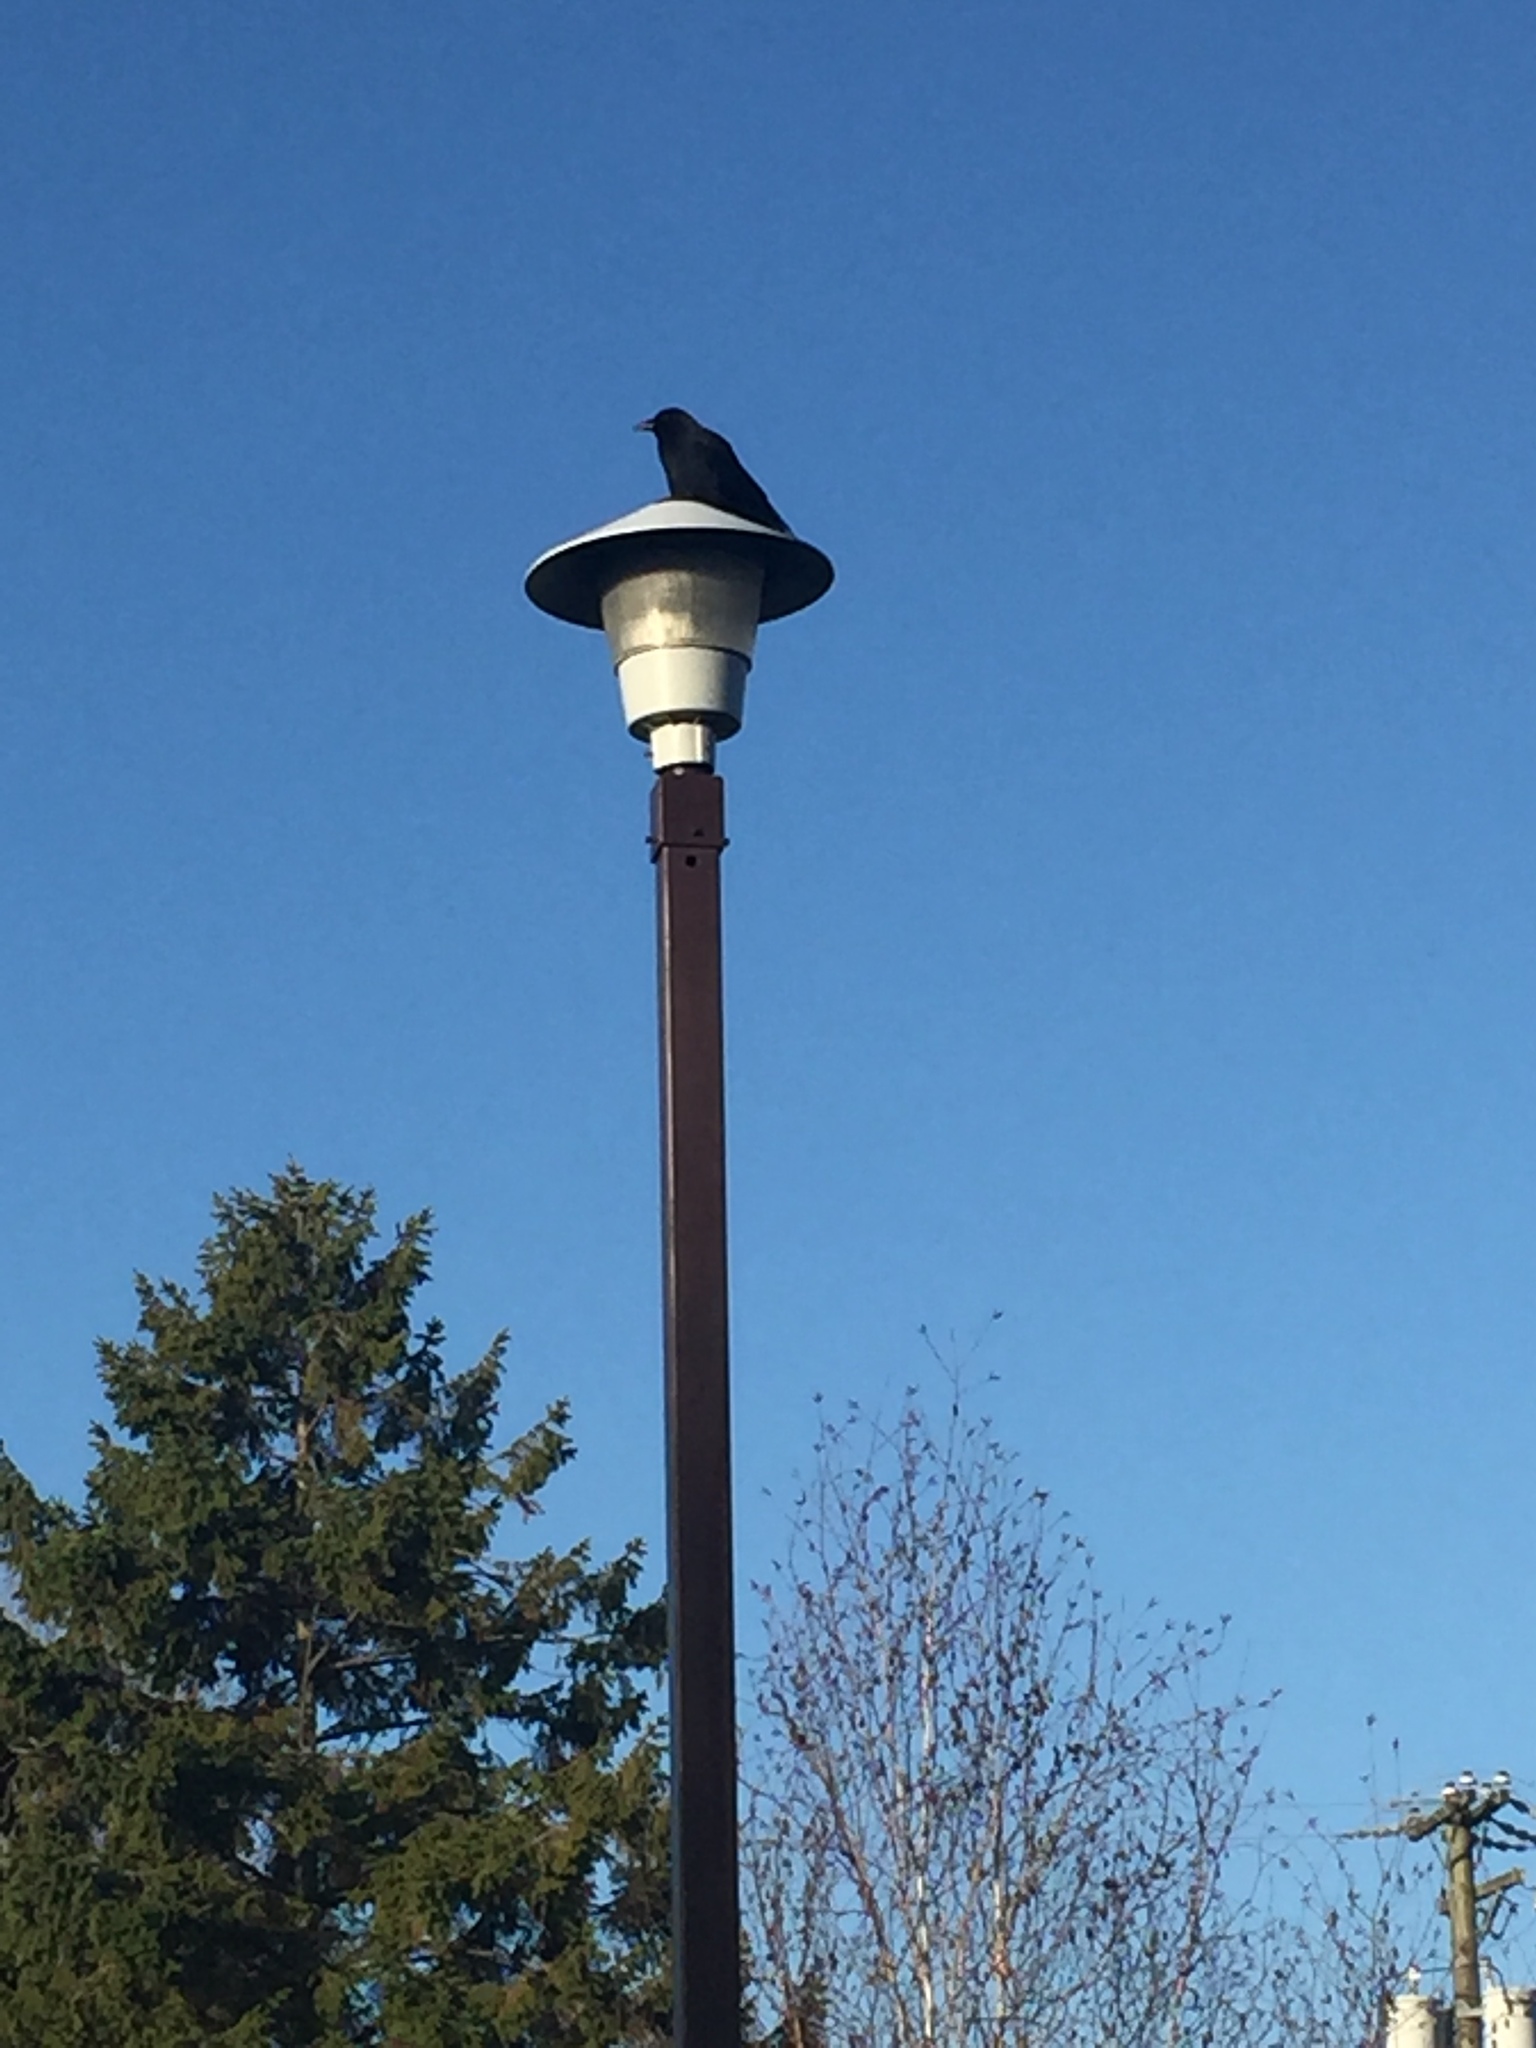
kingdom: Animalia
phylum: Chordata
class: Aves
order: Passeriformes
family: Corvidae
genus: Corvus
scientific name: Corvus brachyrhynchos
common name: American crow
